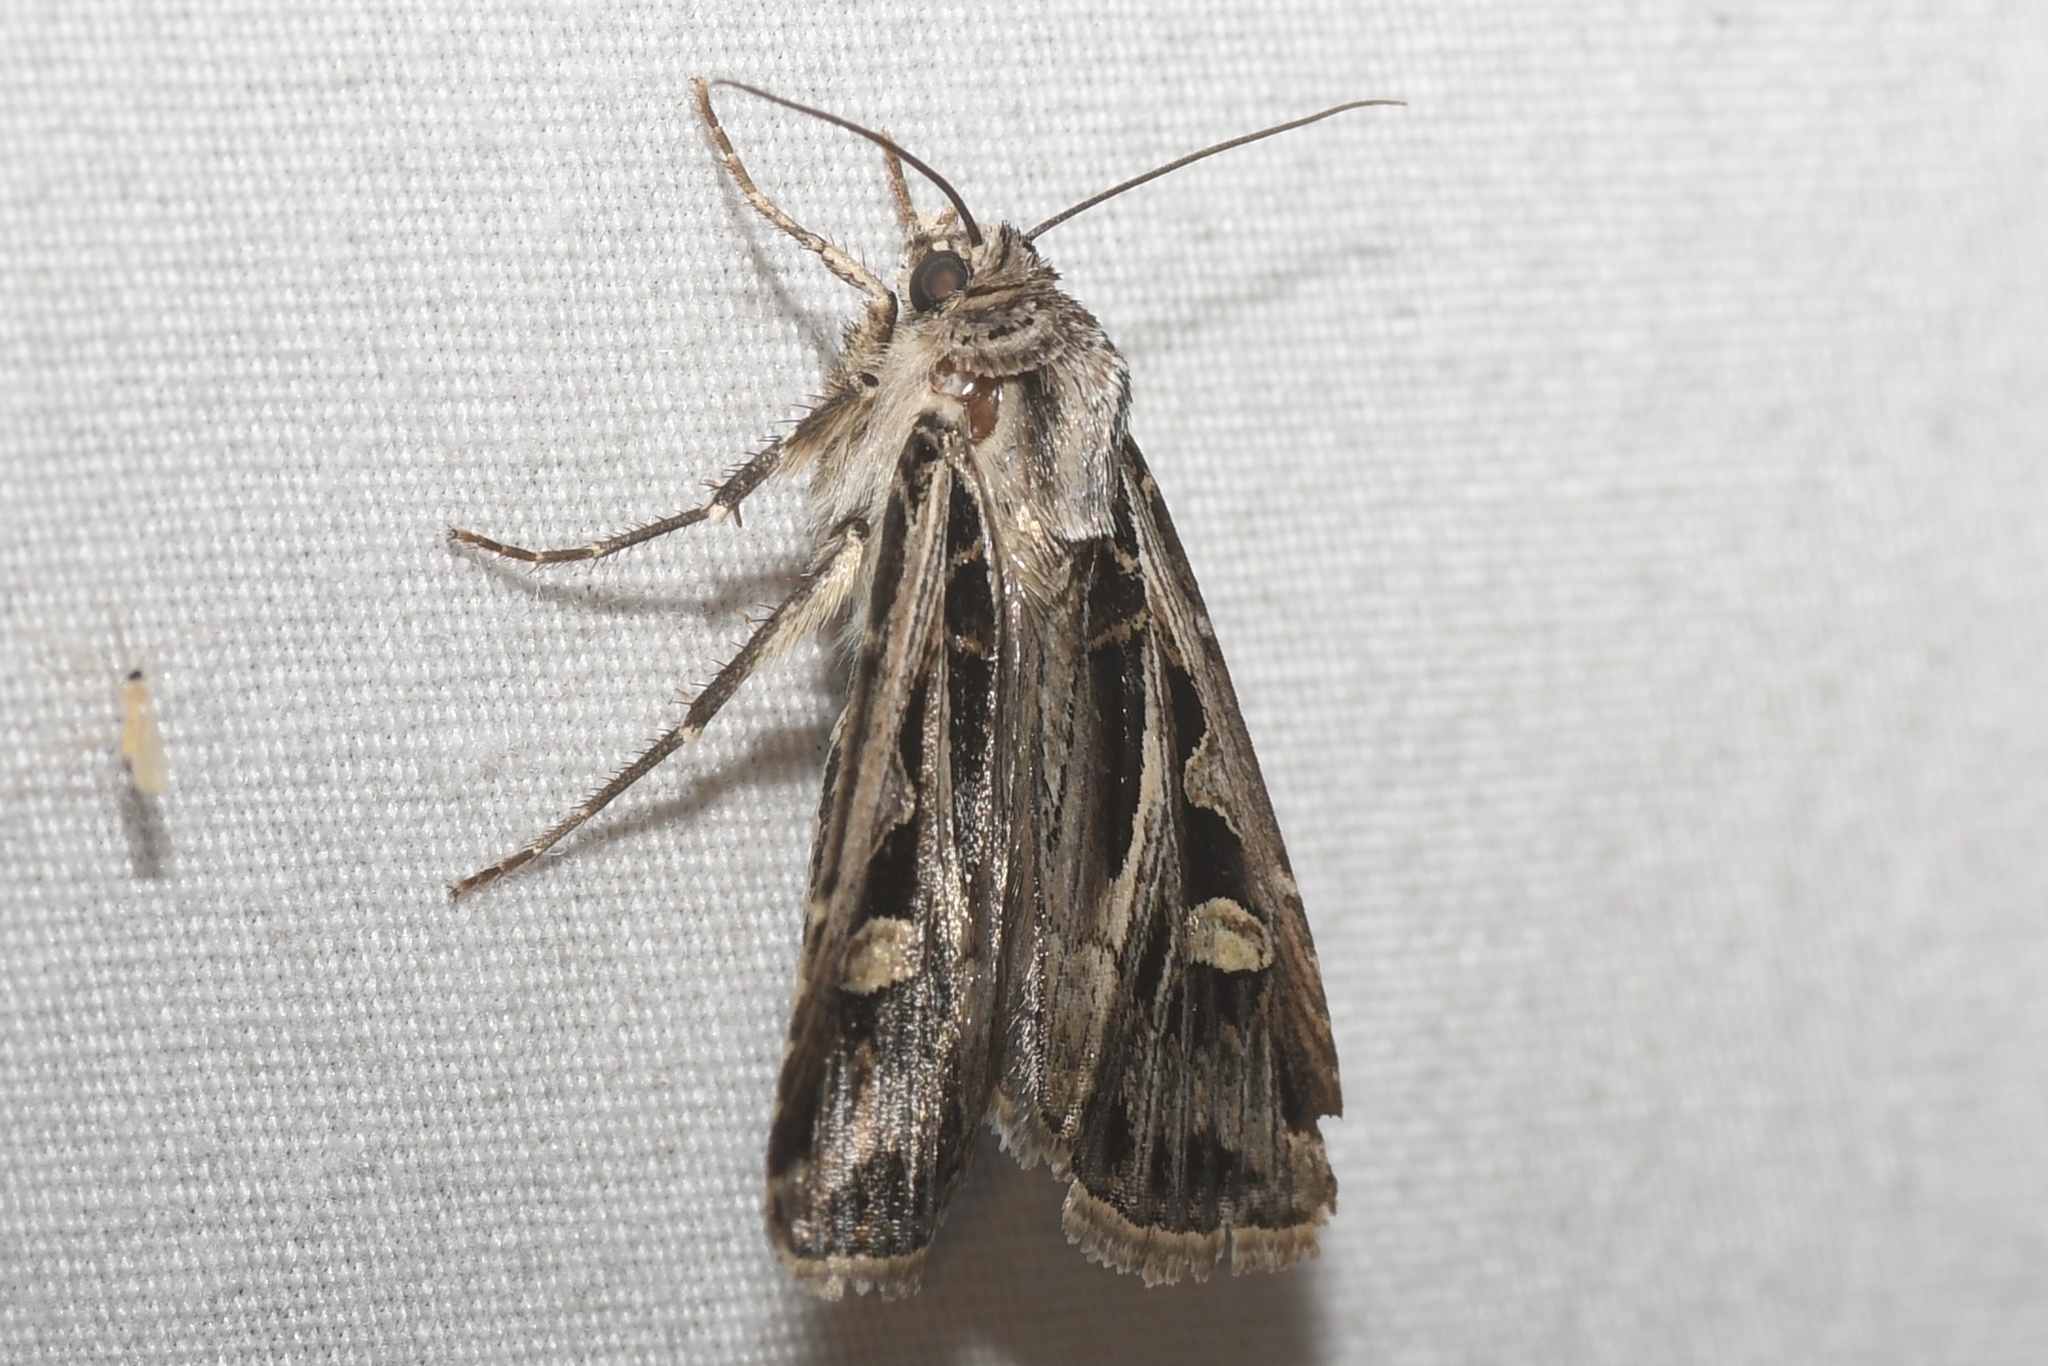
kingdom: Animalia
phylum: Arthropoda
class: Insecta
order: Lepidoptera
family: Noctuidae
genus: Feltia
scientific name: Feltia jaculifera
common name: Dingy cutworm moth
